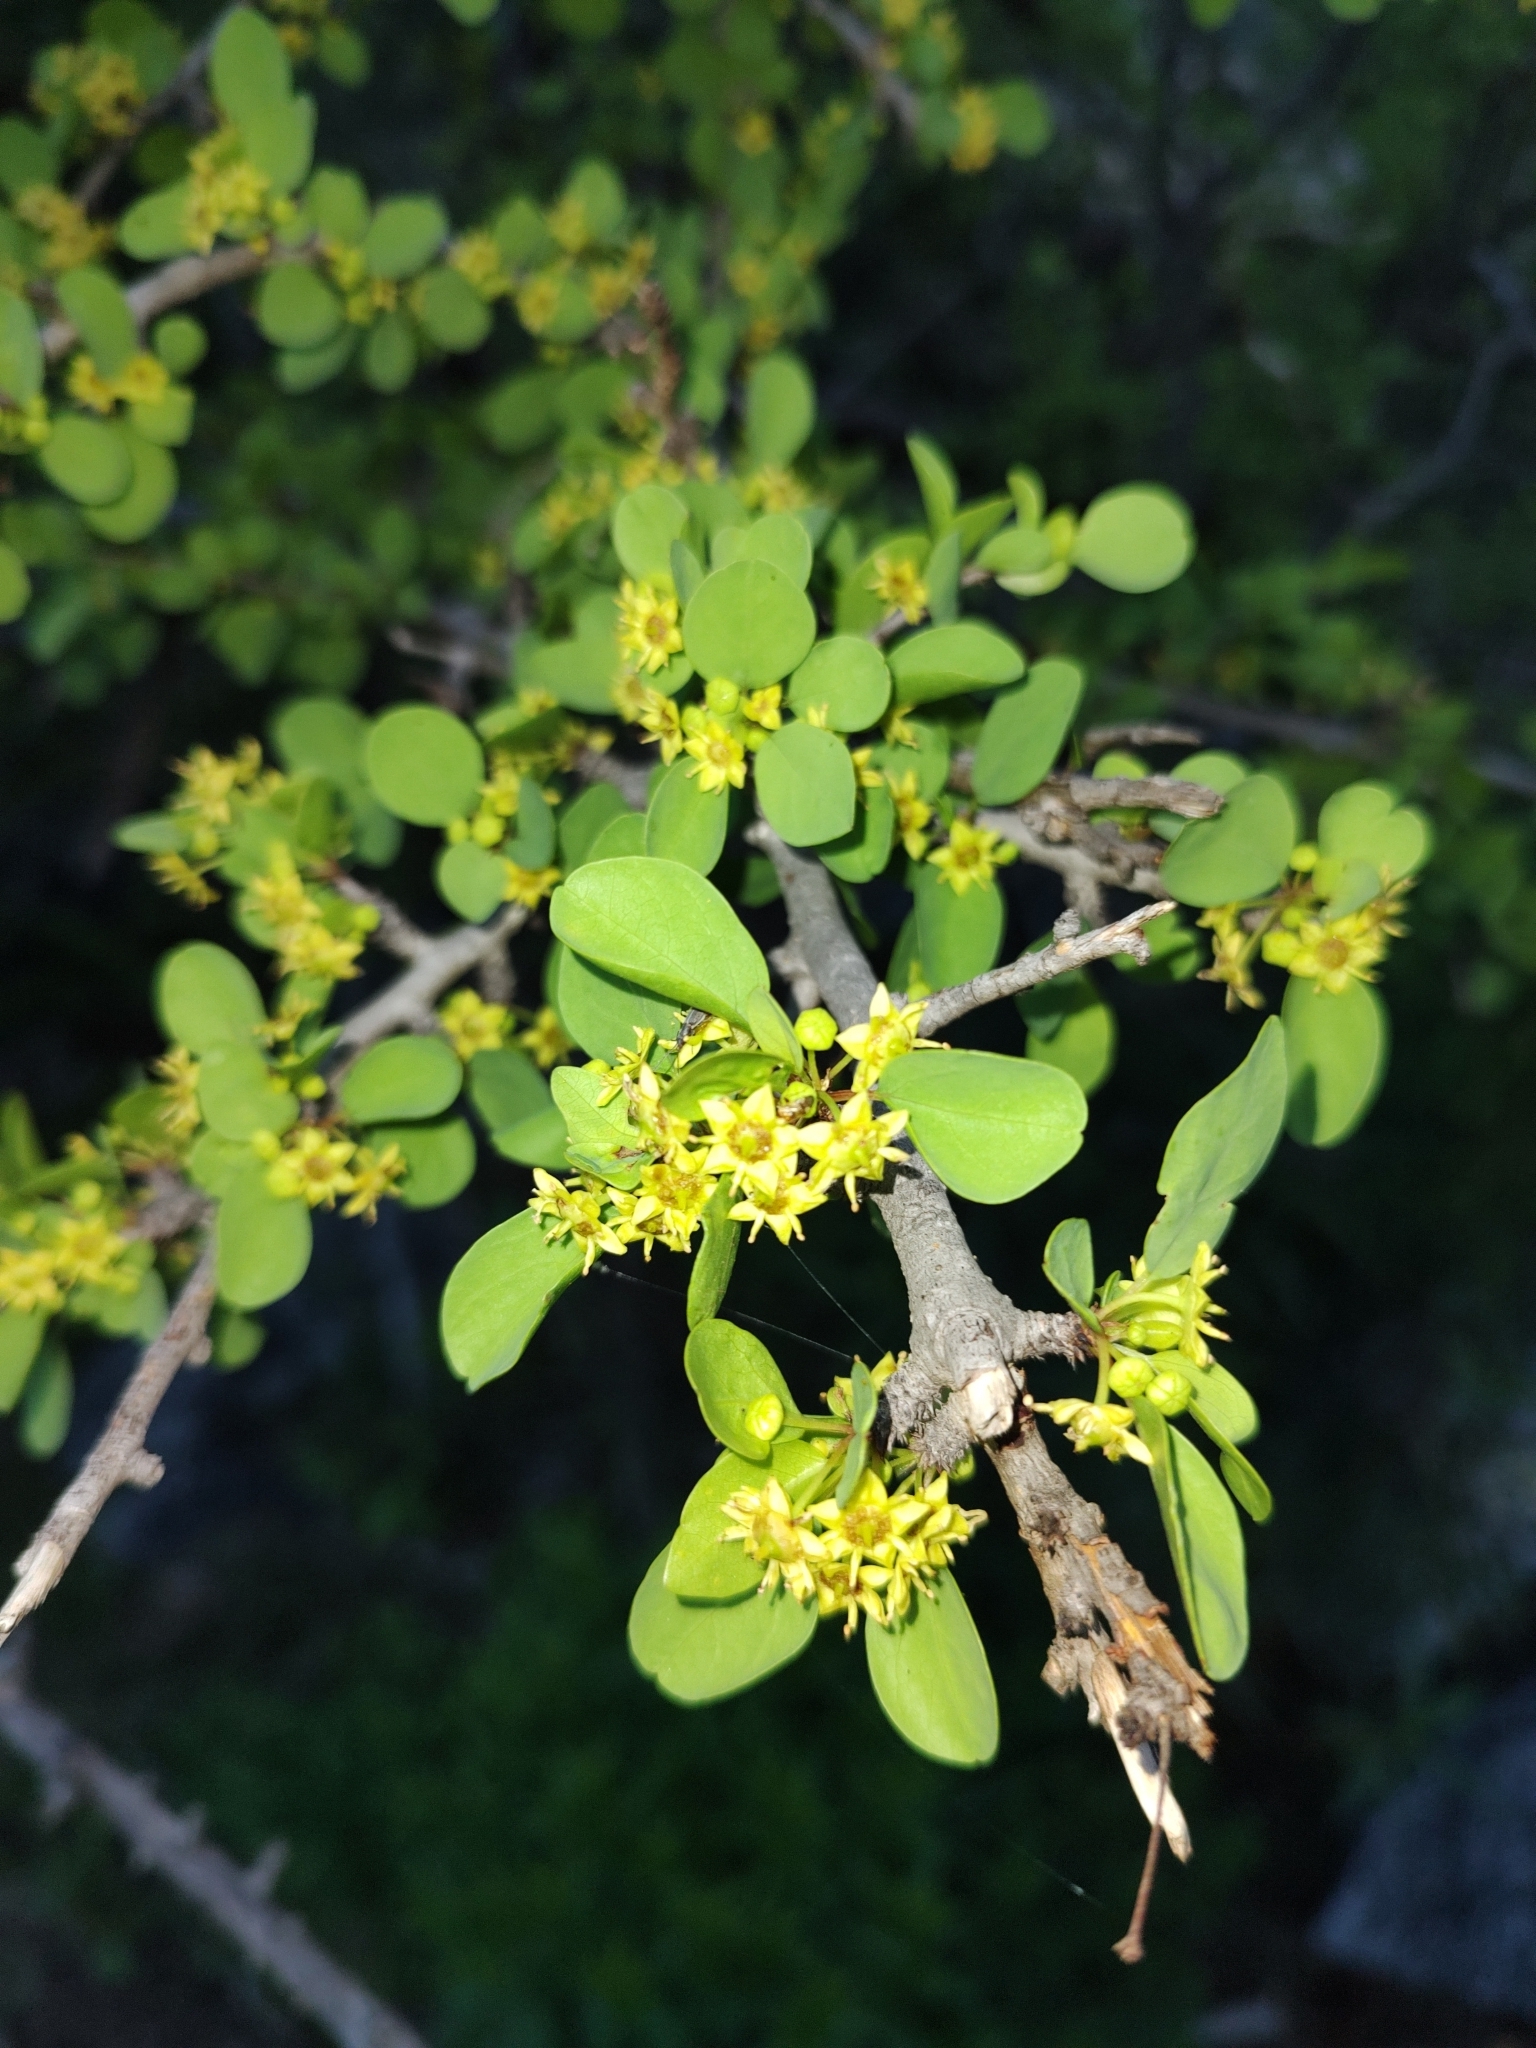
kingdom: Plantae
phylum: Tracheophyta
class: Magnoliopsida
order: Rosales
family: Rhamnaceae
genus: Colubrina
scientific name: Colubrina viridis
